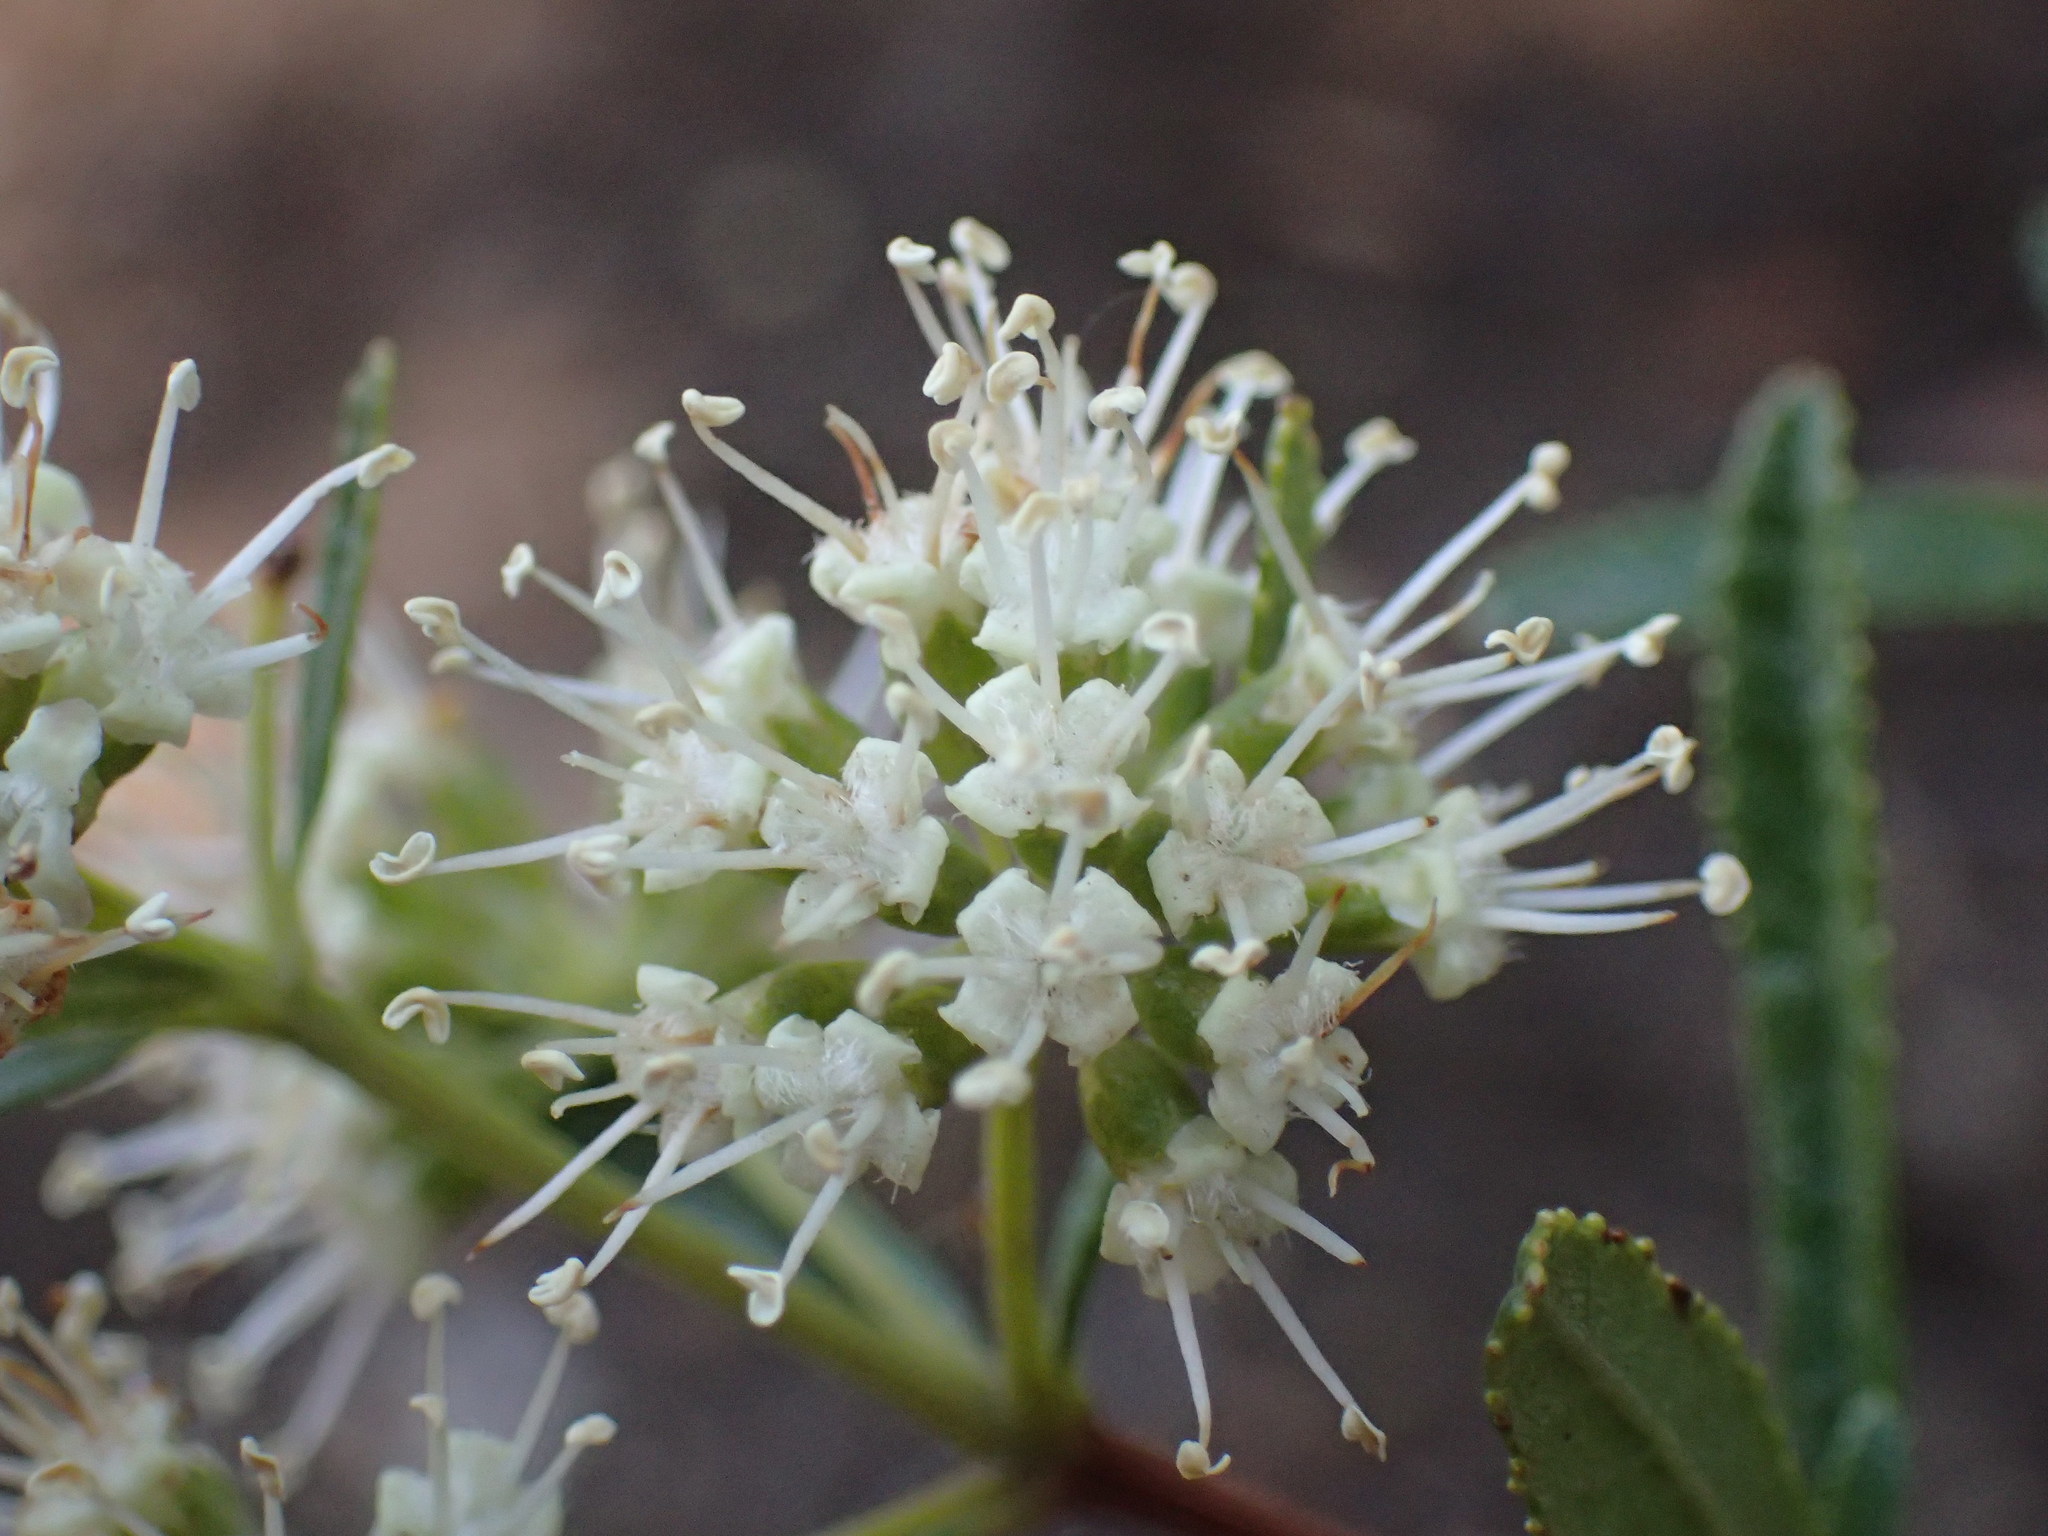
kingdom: Plantae
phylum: Tracheophyta
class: Magnoliopsida
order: Lamiales
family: Stilbaceae
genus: Nuxia
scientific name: Nuxia gracilis
